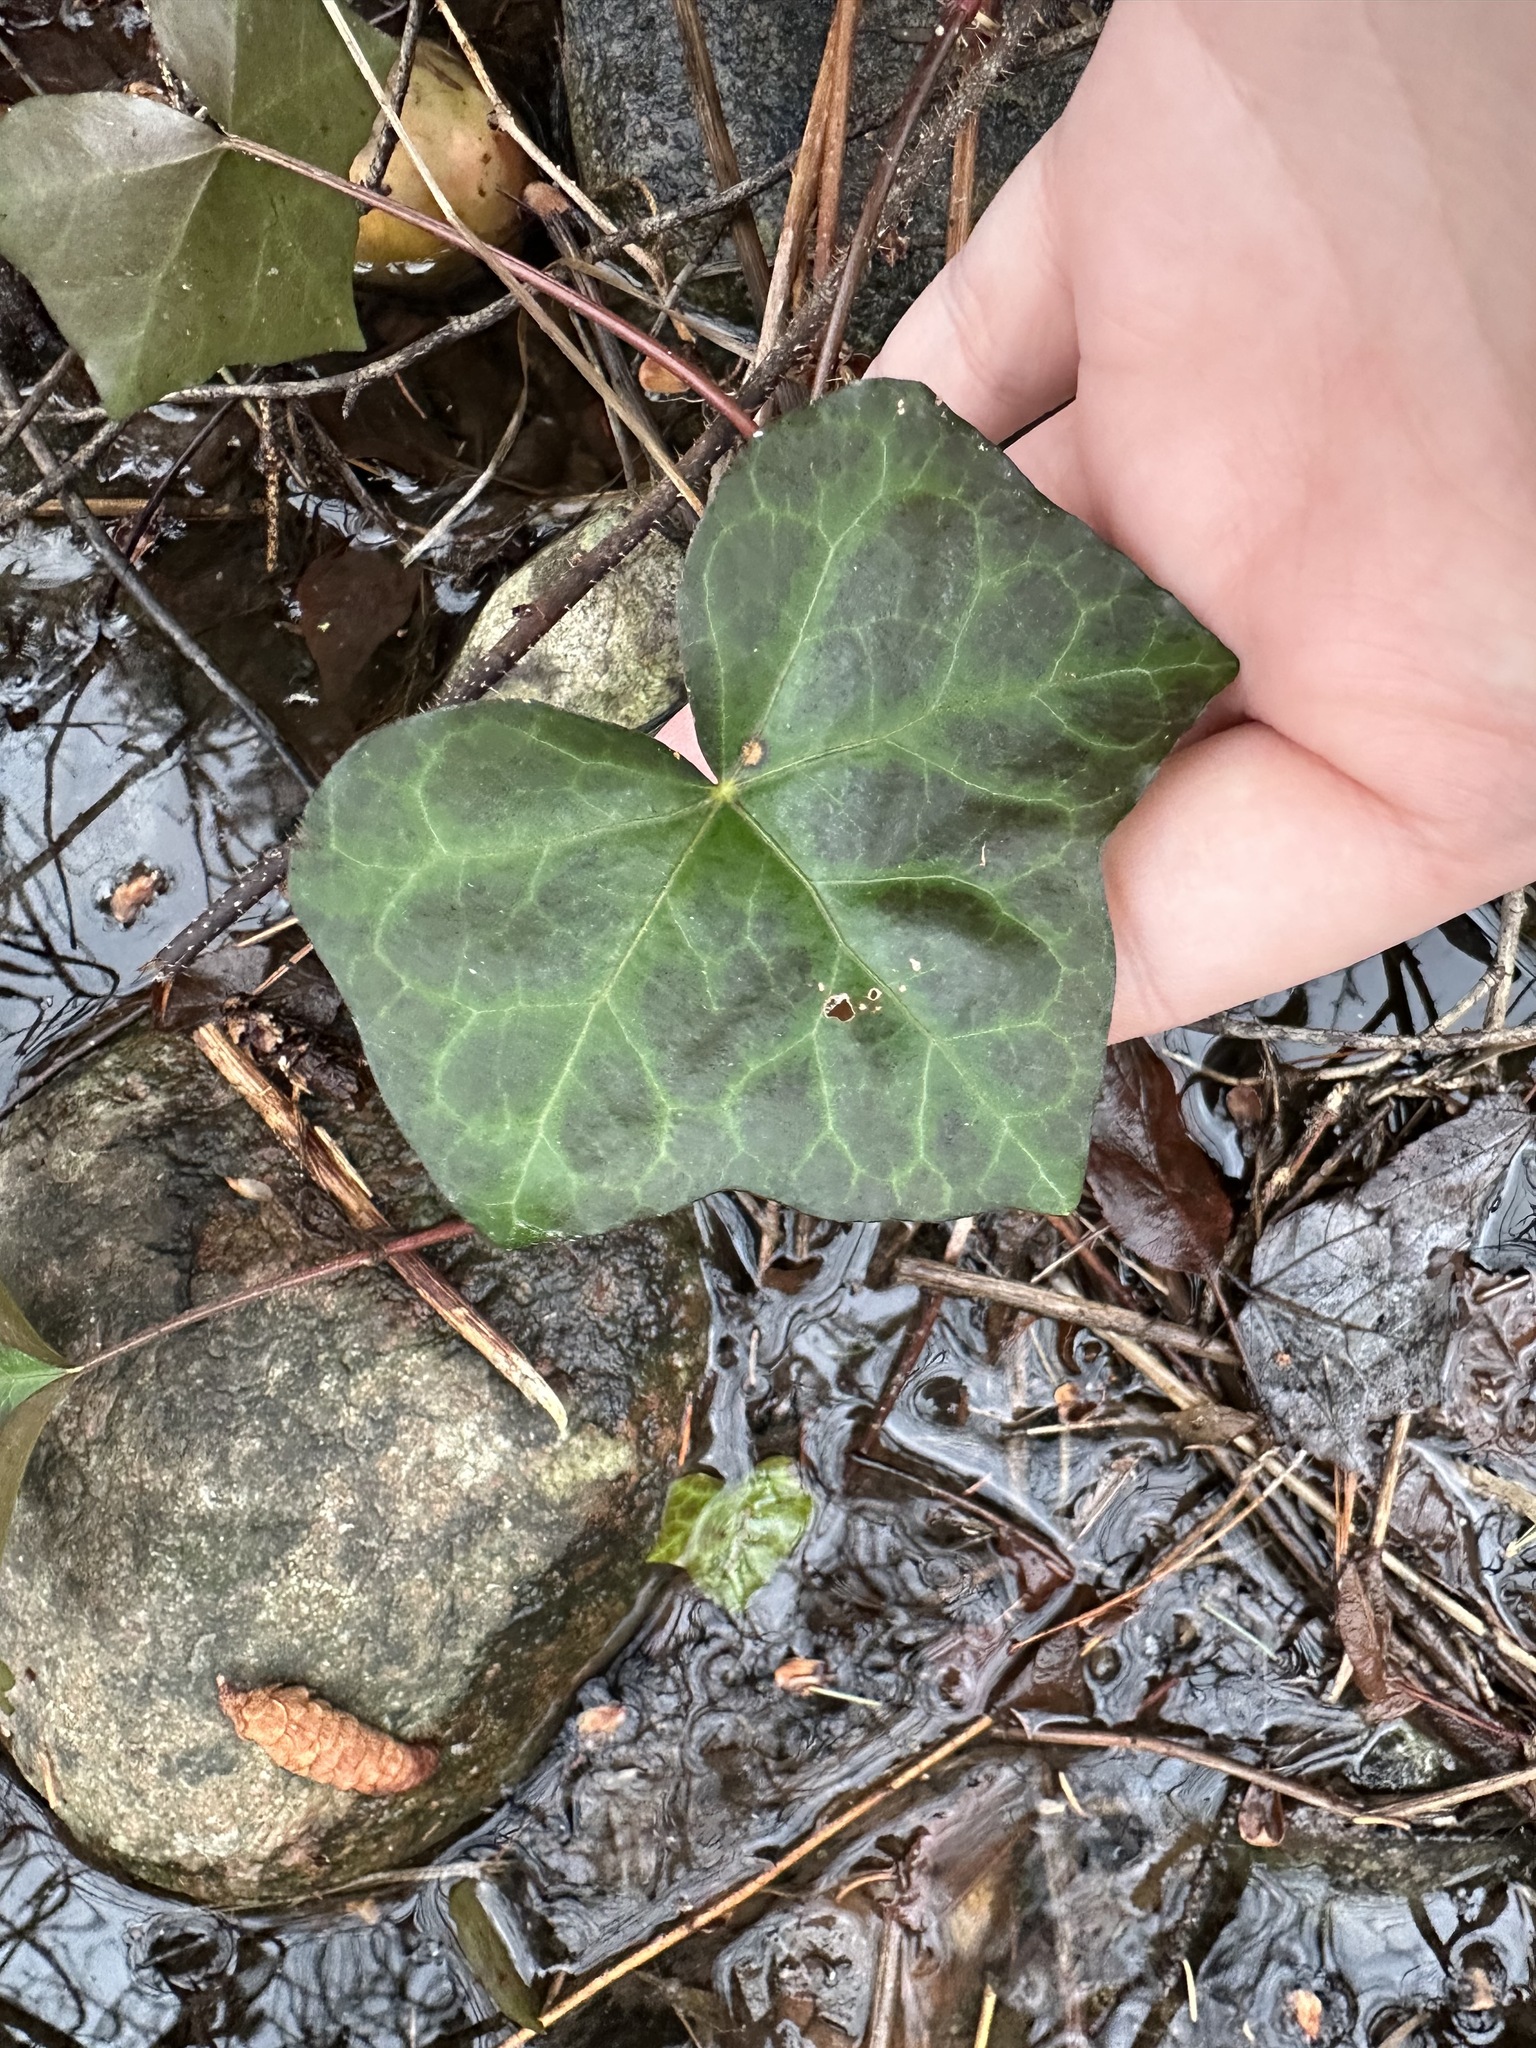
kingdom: Plantae
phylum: Tracheophyta
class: Magnoliopsida
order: Apiales
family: Araliaceae
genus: Hedera
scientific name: Hedera helix
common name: Ivy
